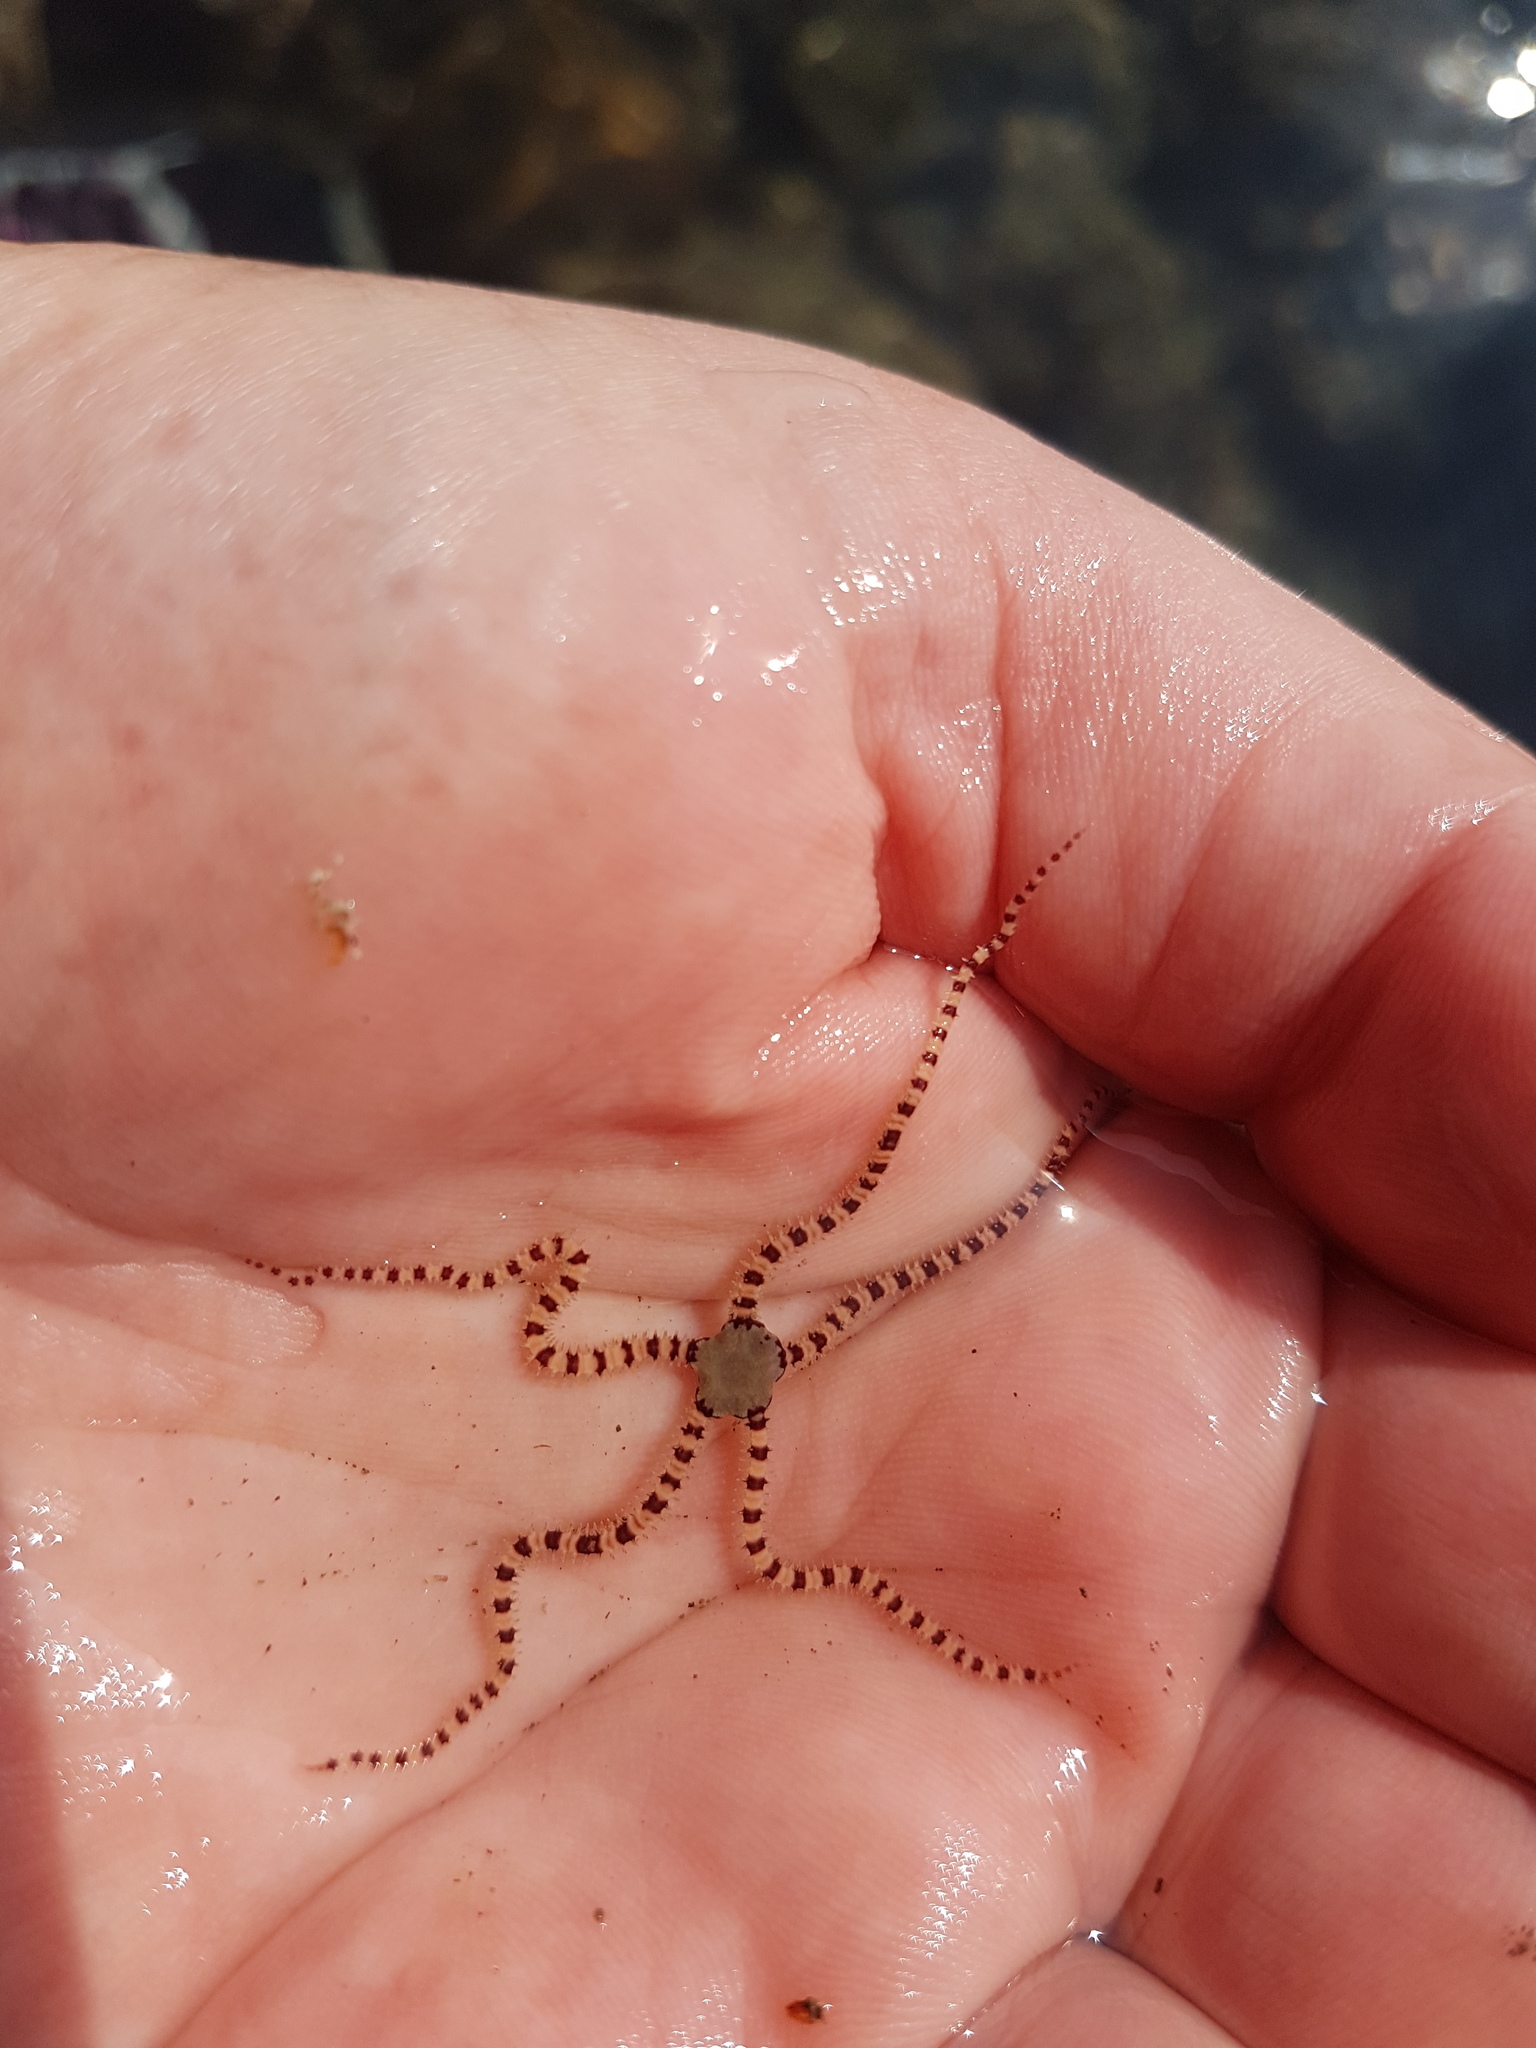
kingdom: Animalia
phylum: Echinodermata
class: Ophiuroidea
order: Amphilepidida
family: Ophionereididae
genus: Ophionereis
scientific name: Ophionereis fasciata
